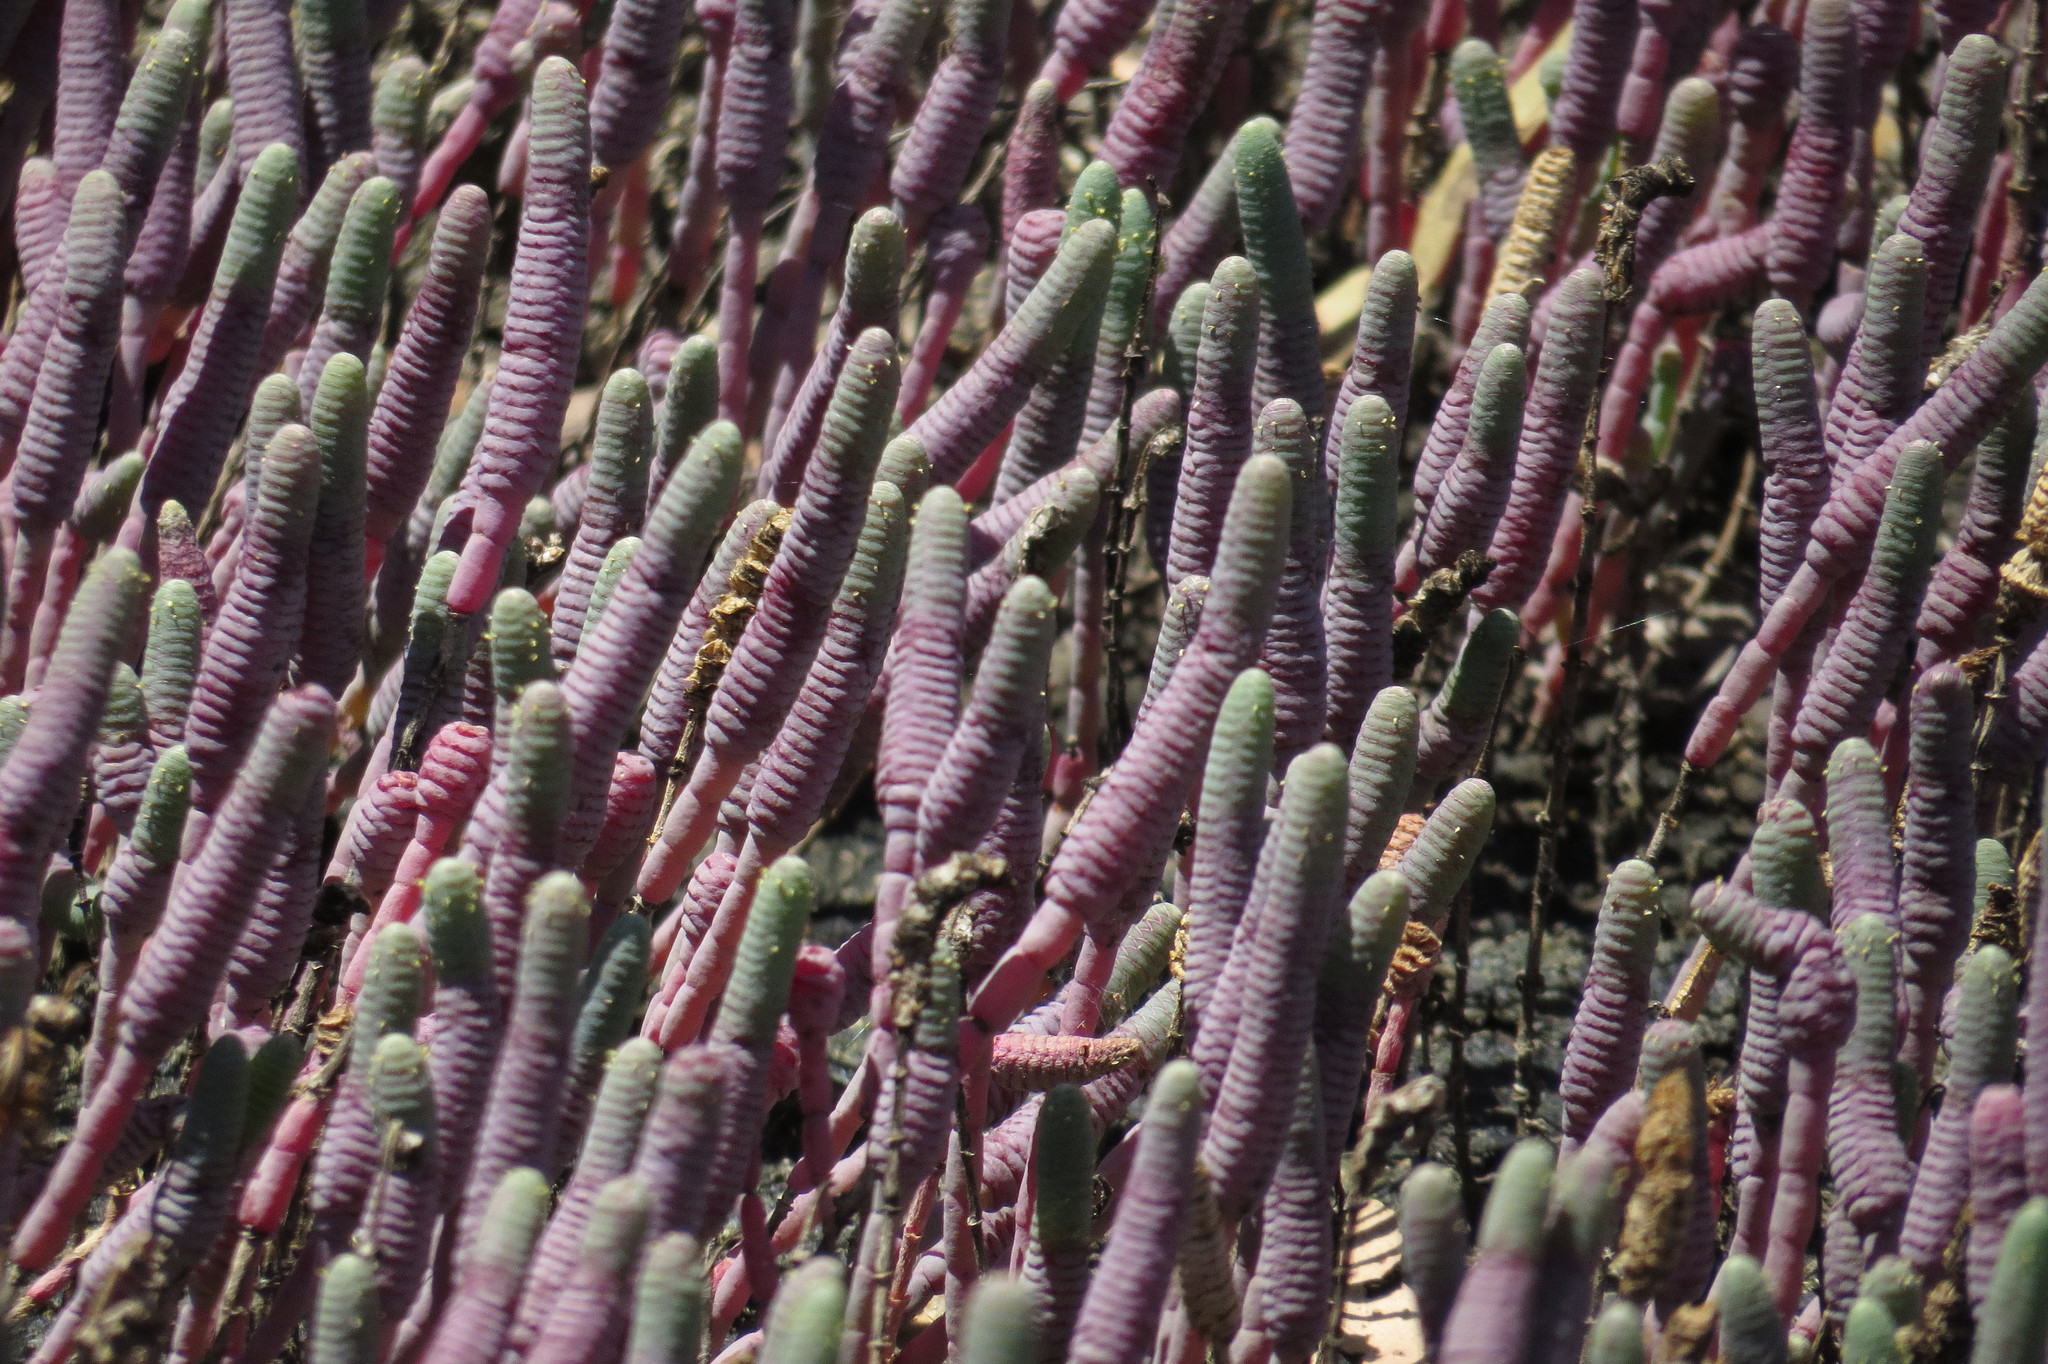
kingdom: Plantae
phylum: Tracheophyta
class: Magnoliopsida
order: Caryophyllales
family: Amaranthaceae
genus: Tecticornia
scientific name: Tecticornia australasica
